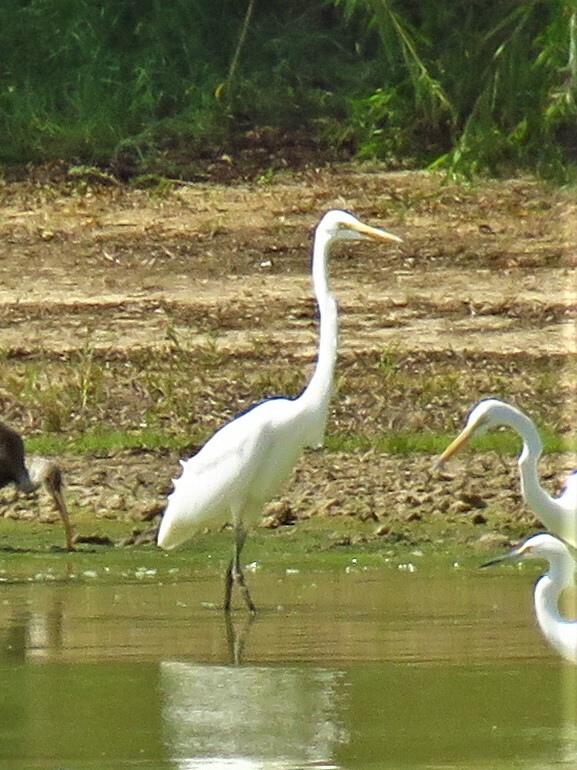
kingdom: Animalia
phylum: Chordata
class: Aves
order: Pelecaniformes
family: Ardeidae
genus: Ardea
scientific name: Ardea alba
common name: Great egret
